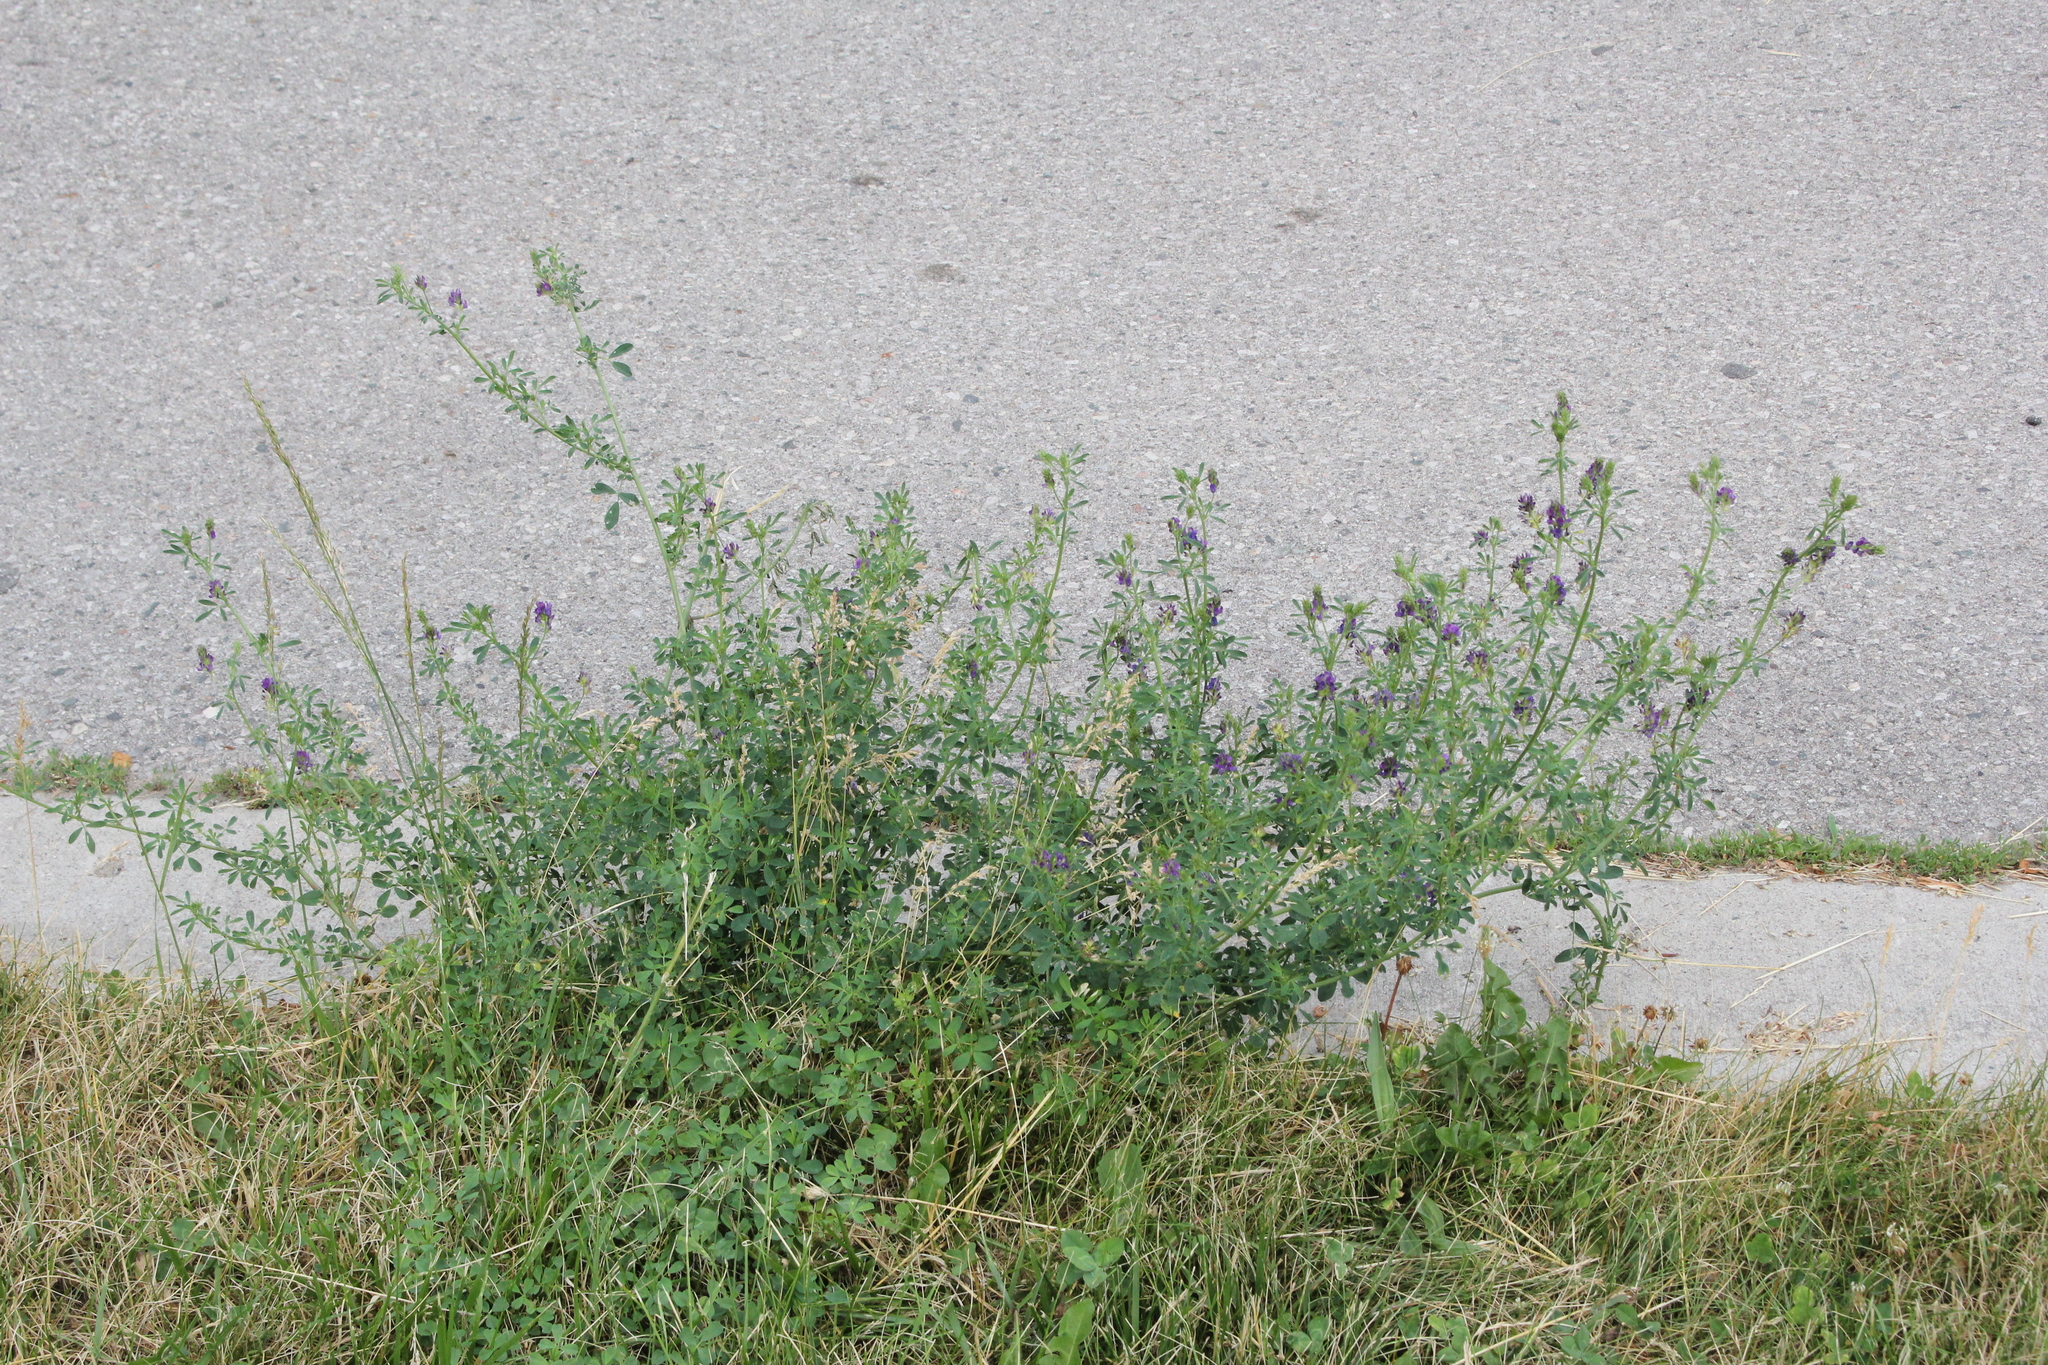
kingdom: Plantae
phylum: Tracheophyta
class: Magnoliopsida
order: Fabales
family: Fabaceae
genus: Medicago
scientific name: Medicago sativa
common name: Alfalfa
